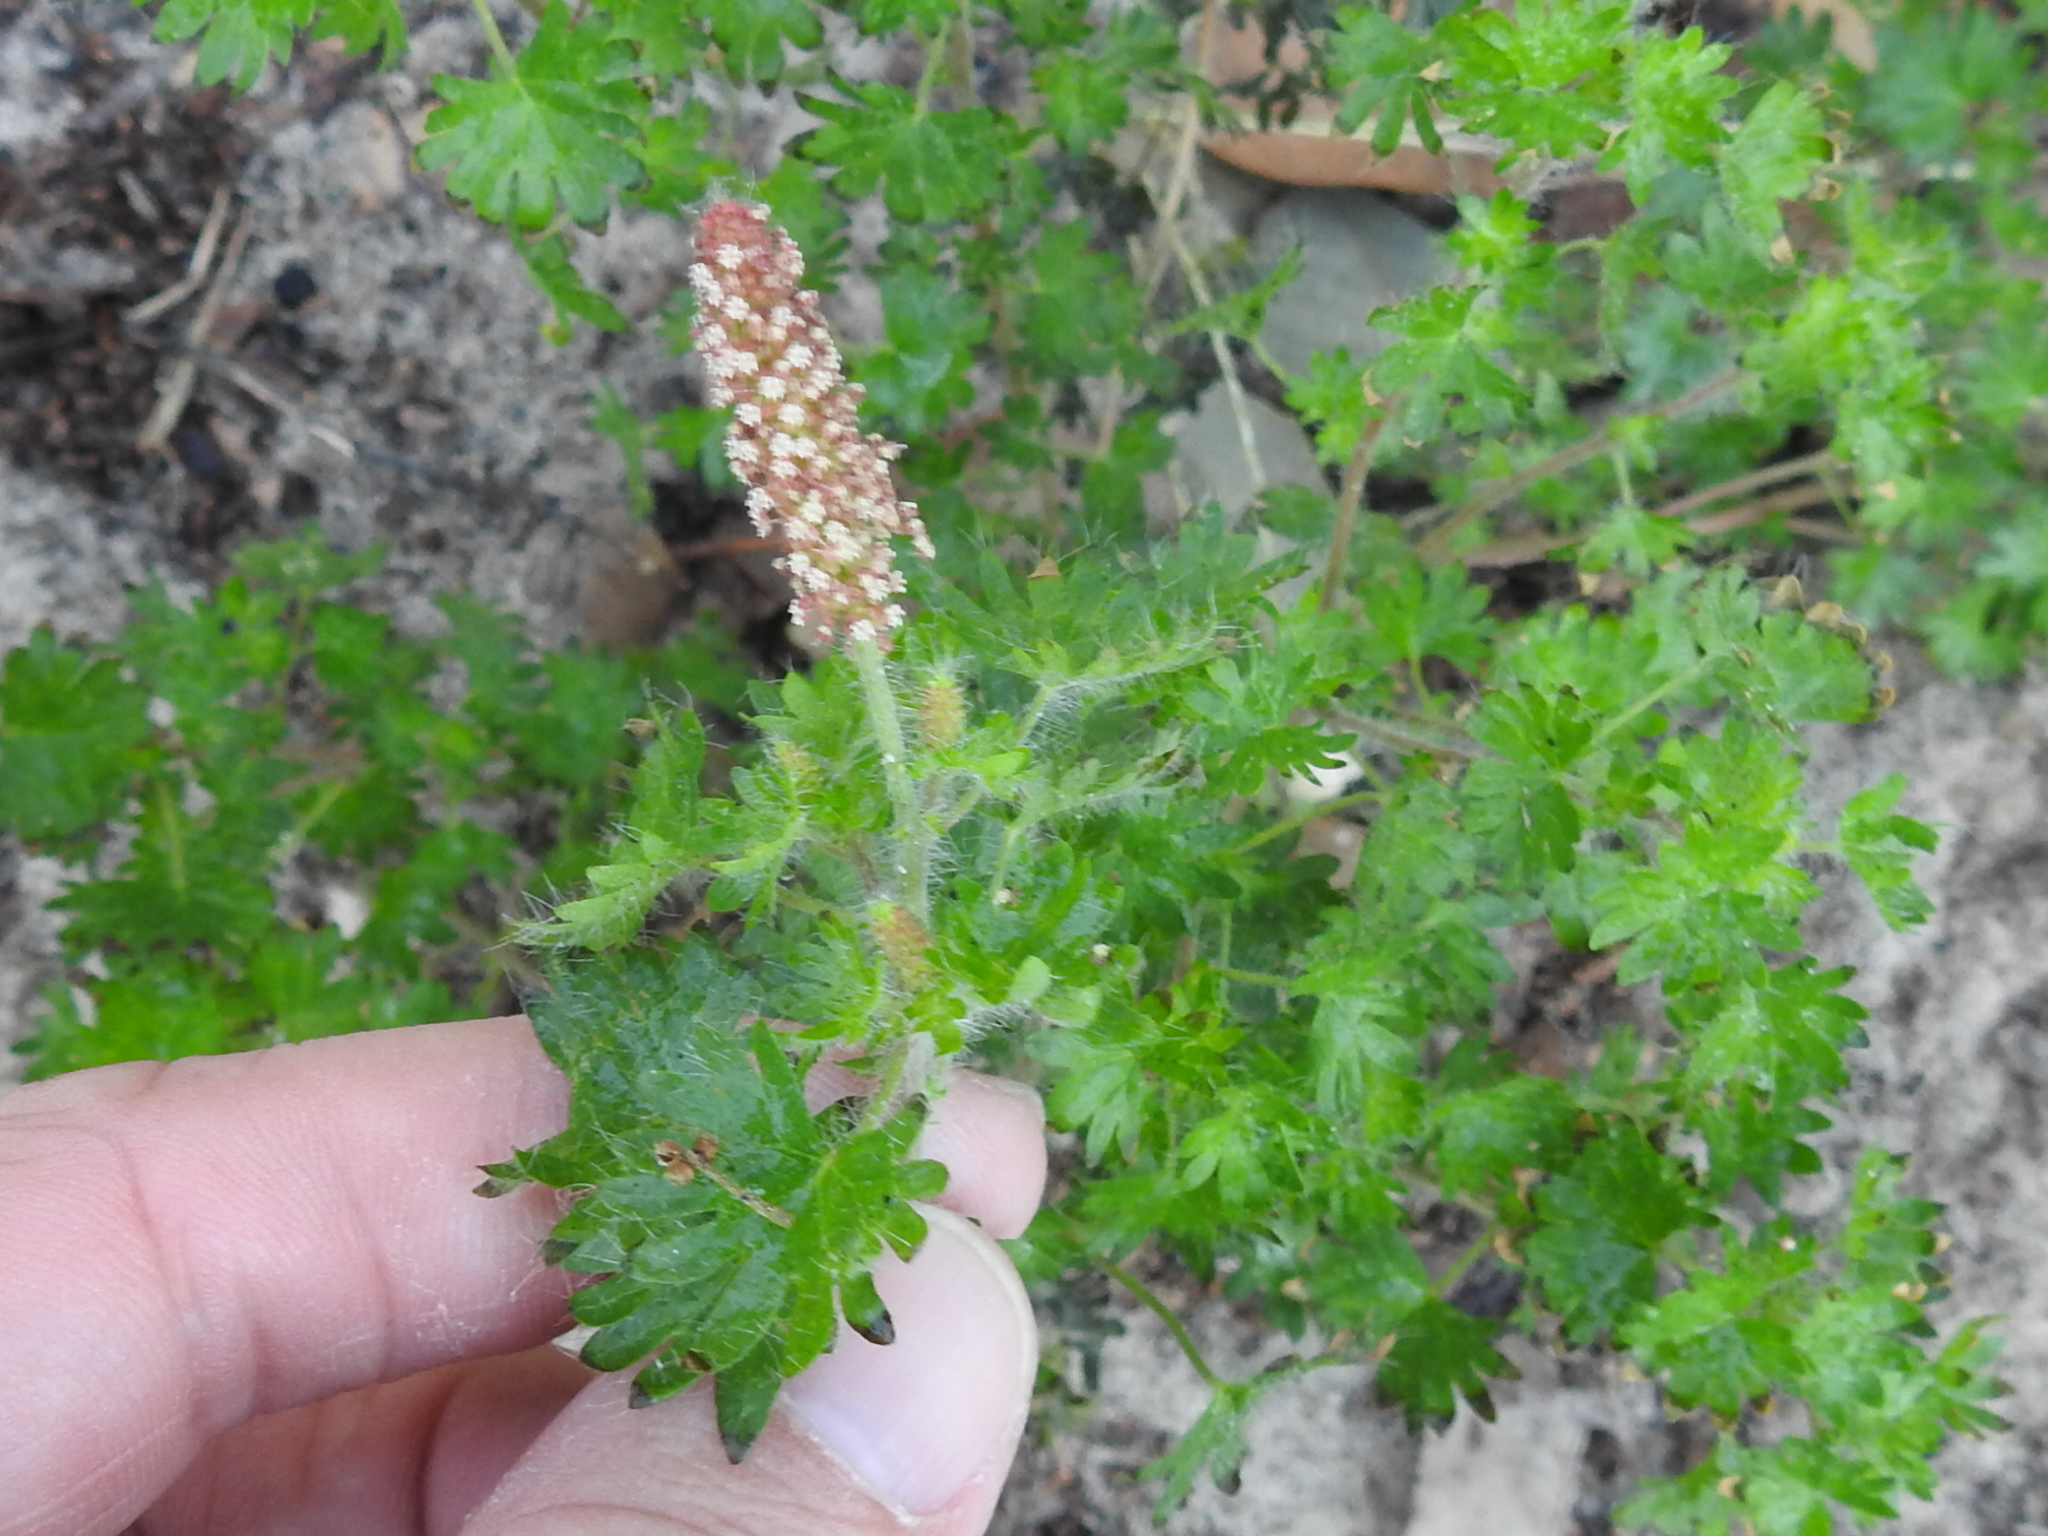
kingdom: Plantae
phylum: Tracheophyta
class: Magnoliopsida
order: Malpighiales
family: Euphorbiaceae
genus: Acalypha
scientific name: Acalypha radians
